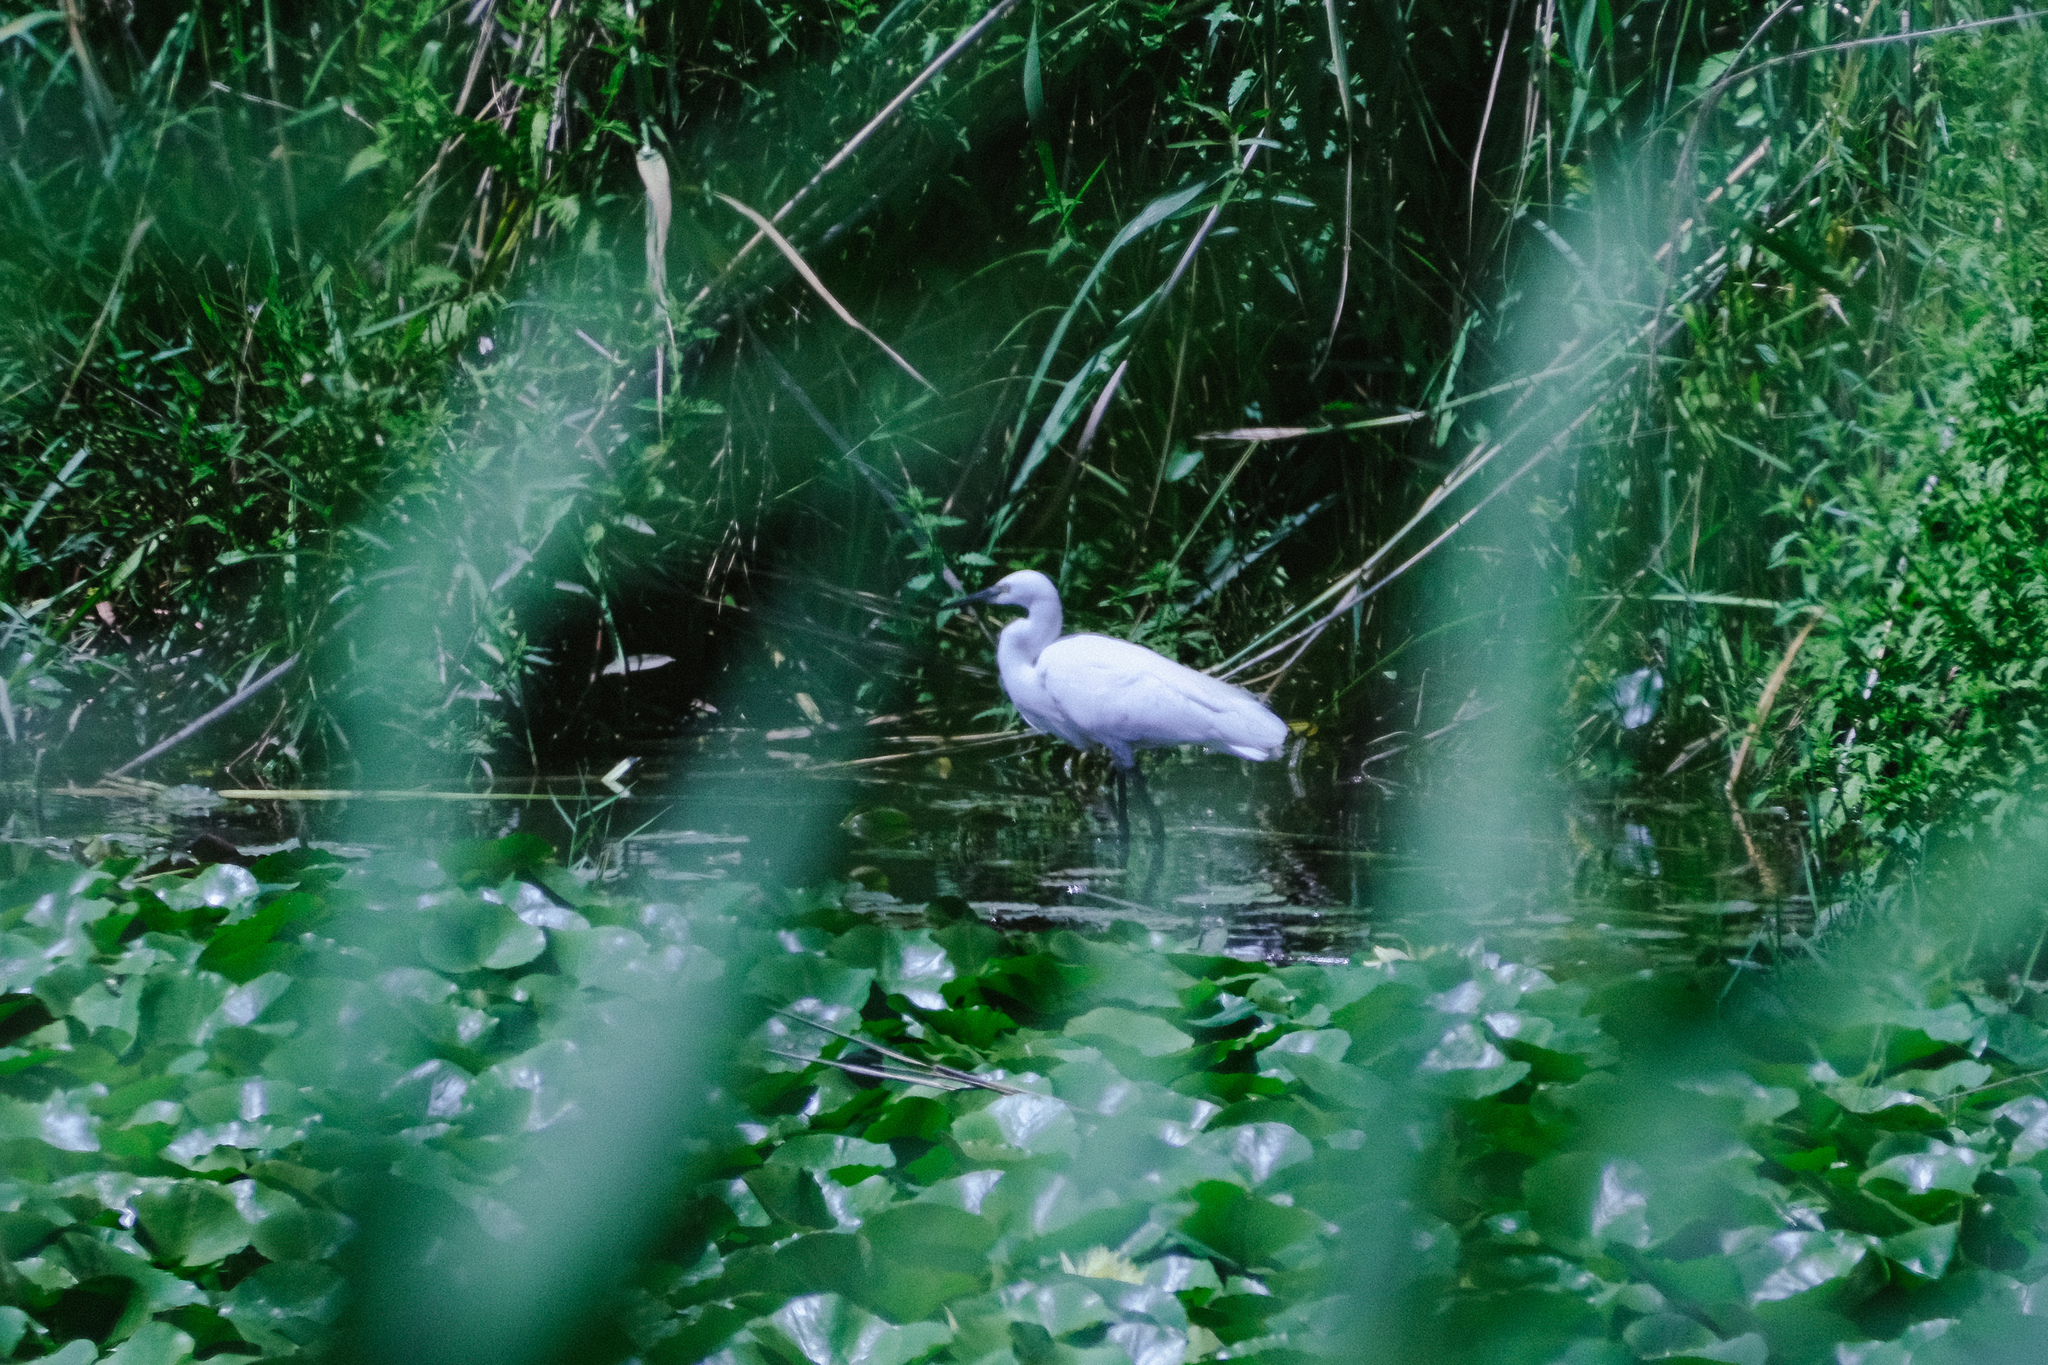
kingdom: Animalia
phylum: Chordata
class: Aves
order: Pelecaniformes
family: Ardeidae
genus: Egretta
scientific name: Egretta garzetta
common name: Little egret
